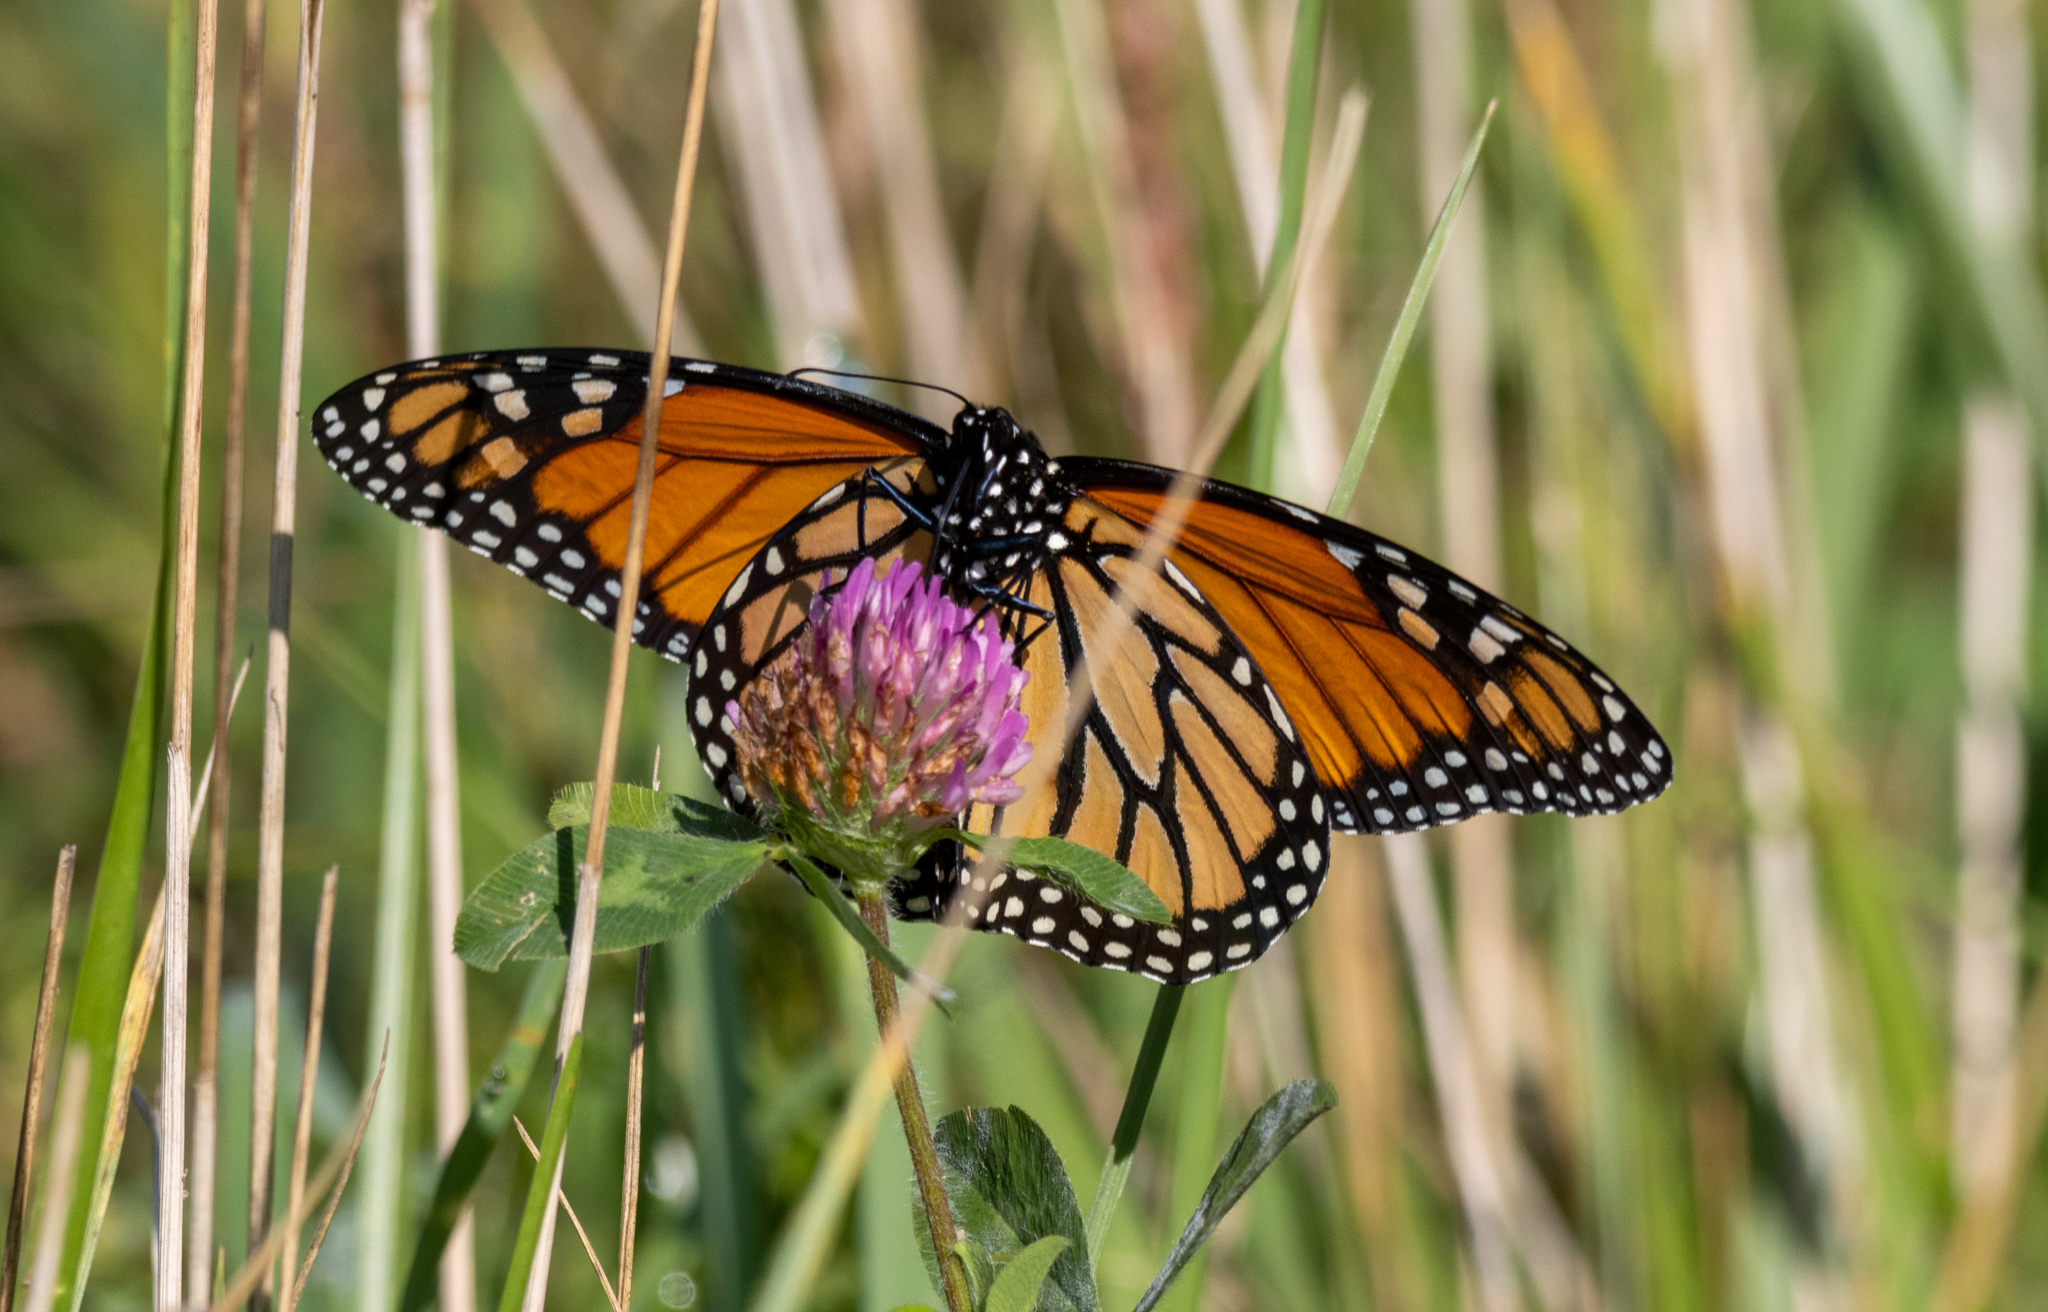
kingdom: Animalia
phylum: Arthropoda
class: Insecta
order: Lepidoptera
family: Nymphalidae
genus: Danaus
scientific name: Danaus plexippus
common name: Monarch
